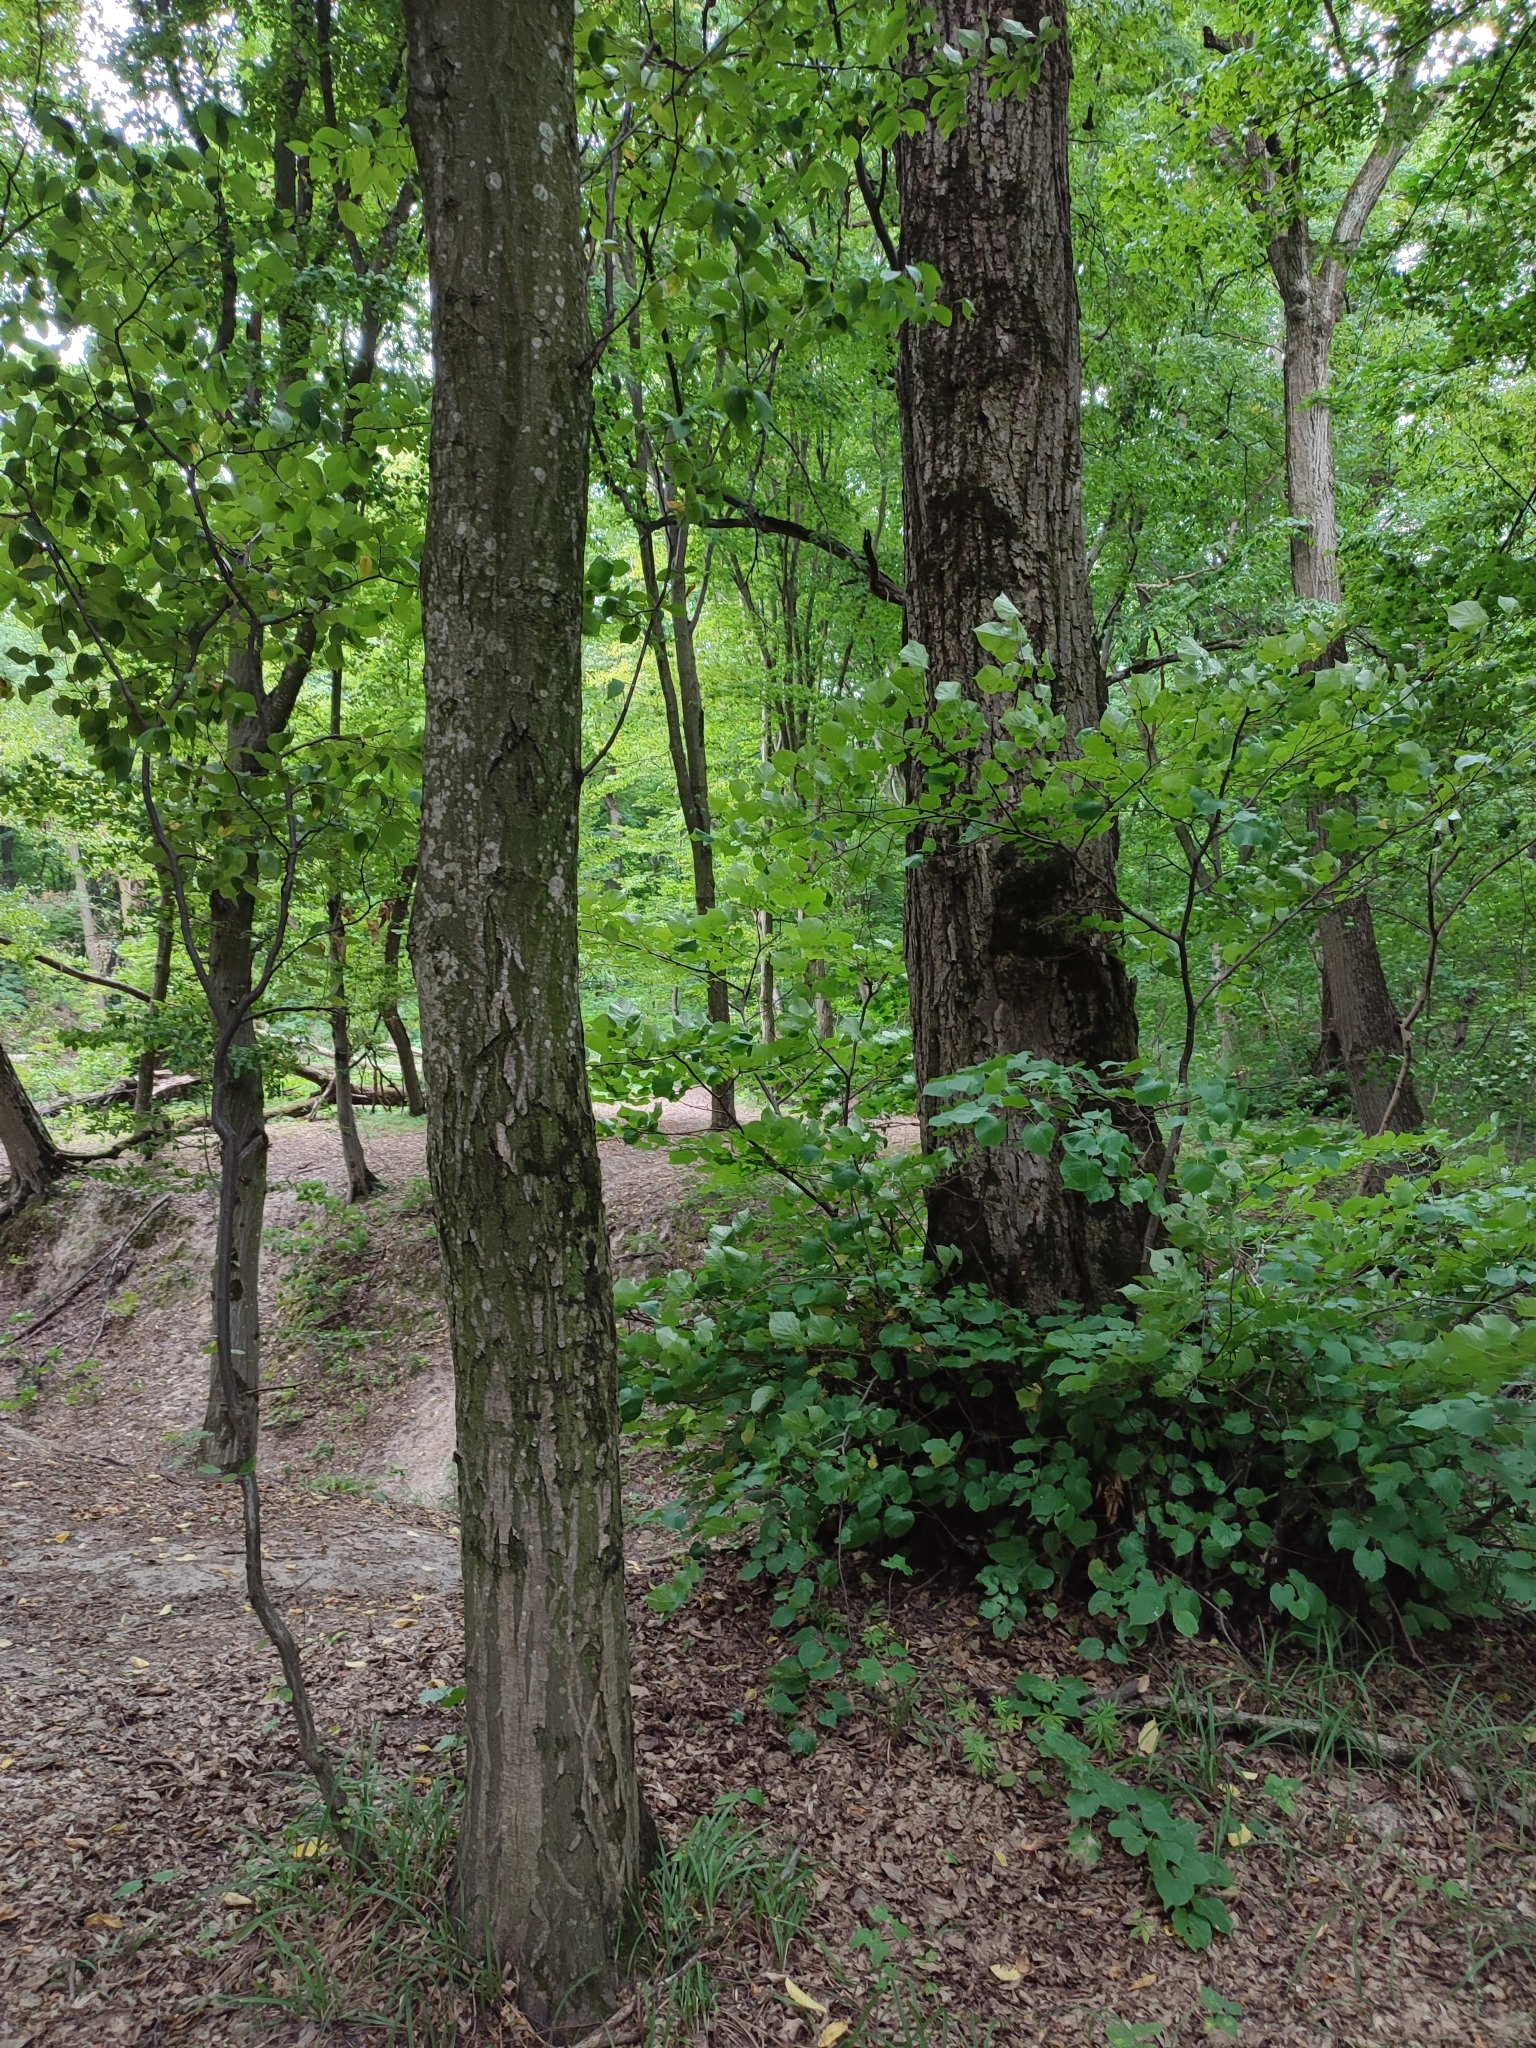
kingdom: Plantae
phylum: Tracheophyta
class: Magnoliopsida
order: Fagales
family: Betulaceae
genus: Carpinus
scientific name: Carpinus betulus
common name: Hornbeam
